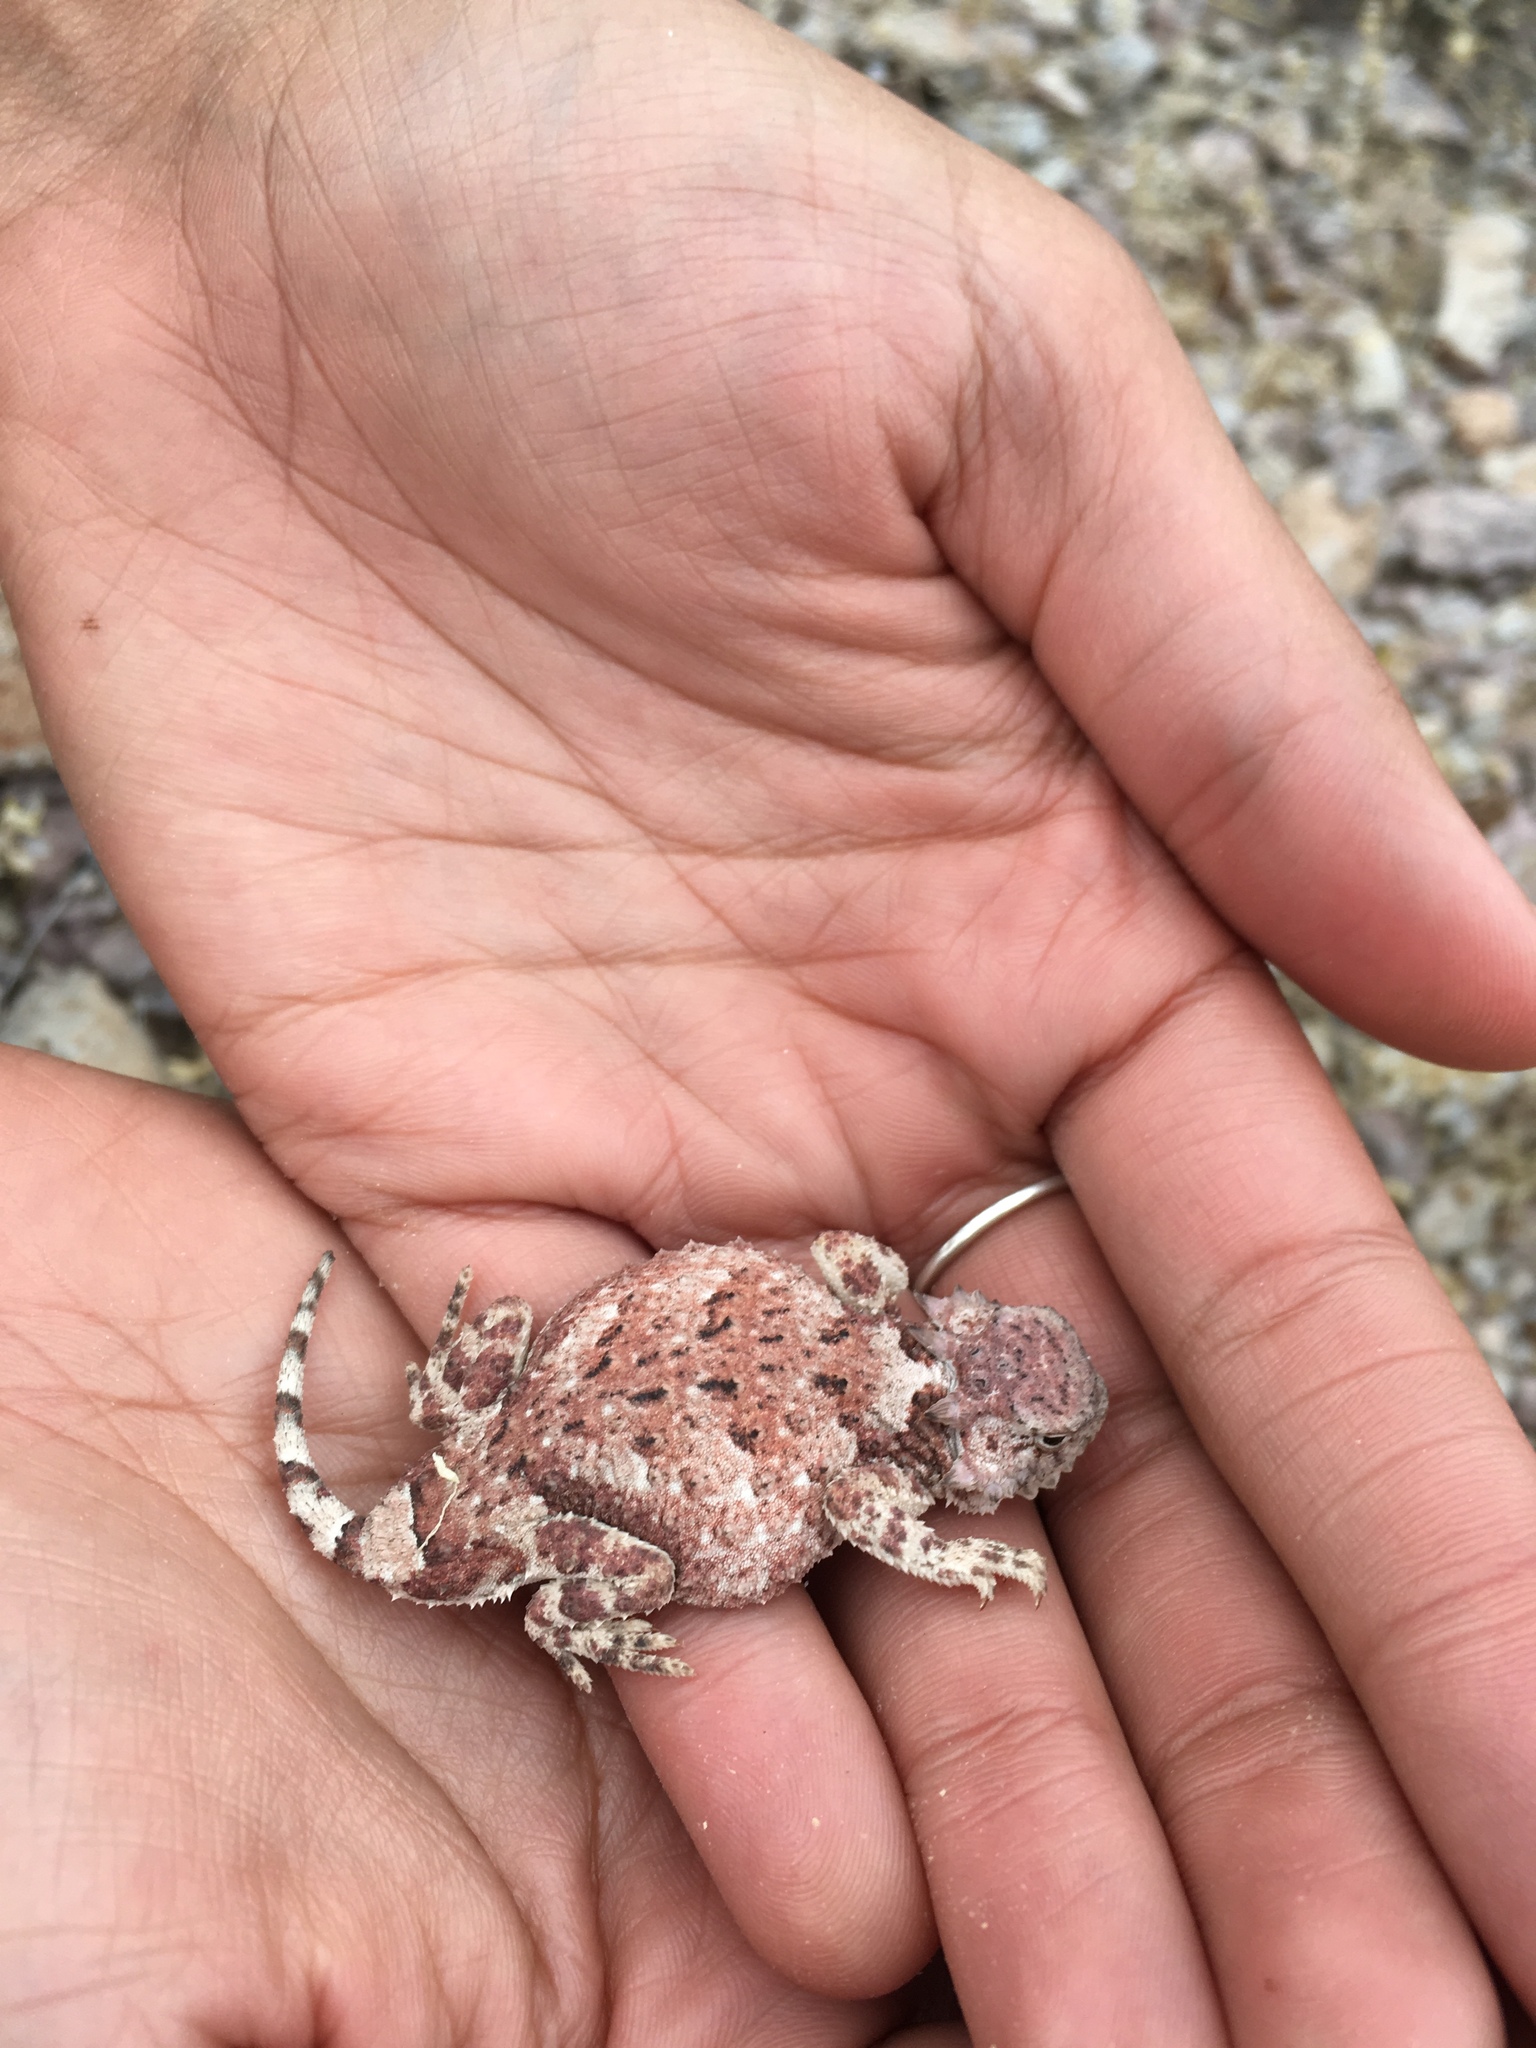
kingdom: Animalia
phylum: Chordata
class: Squamata
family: Phrynosomatidae
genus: Phrynosoma
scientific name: Phrynosoma modestum
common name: Roundtail horned lizard
